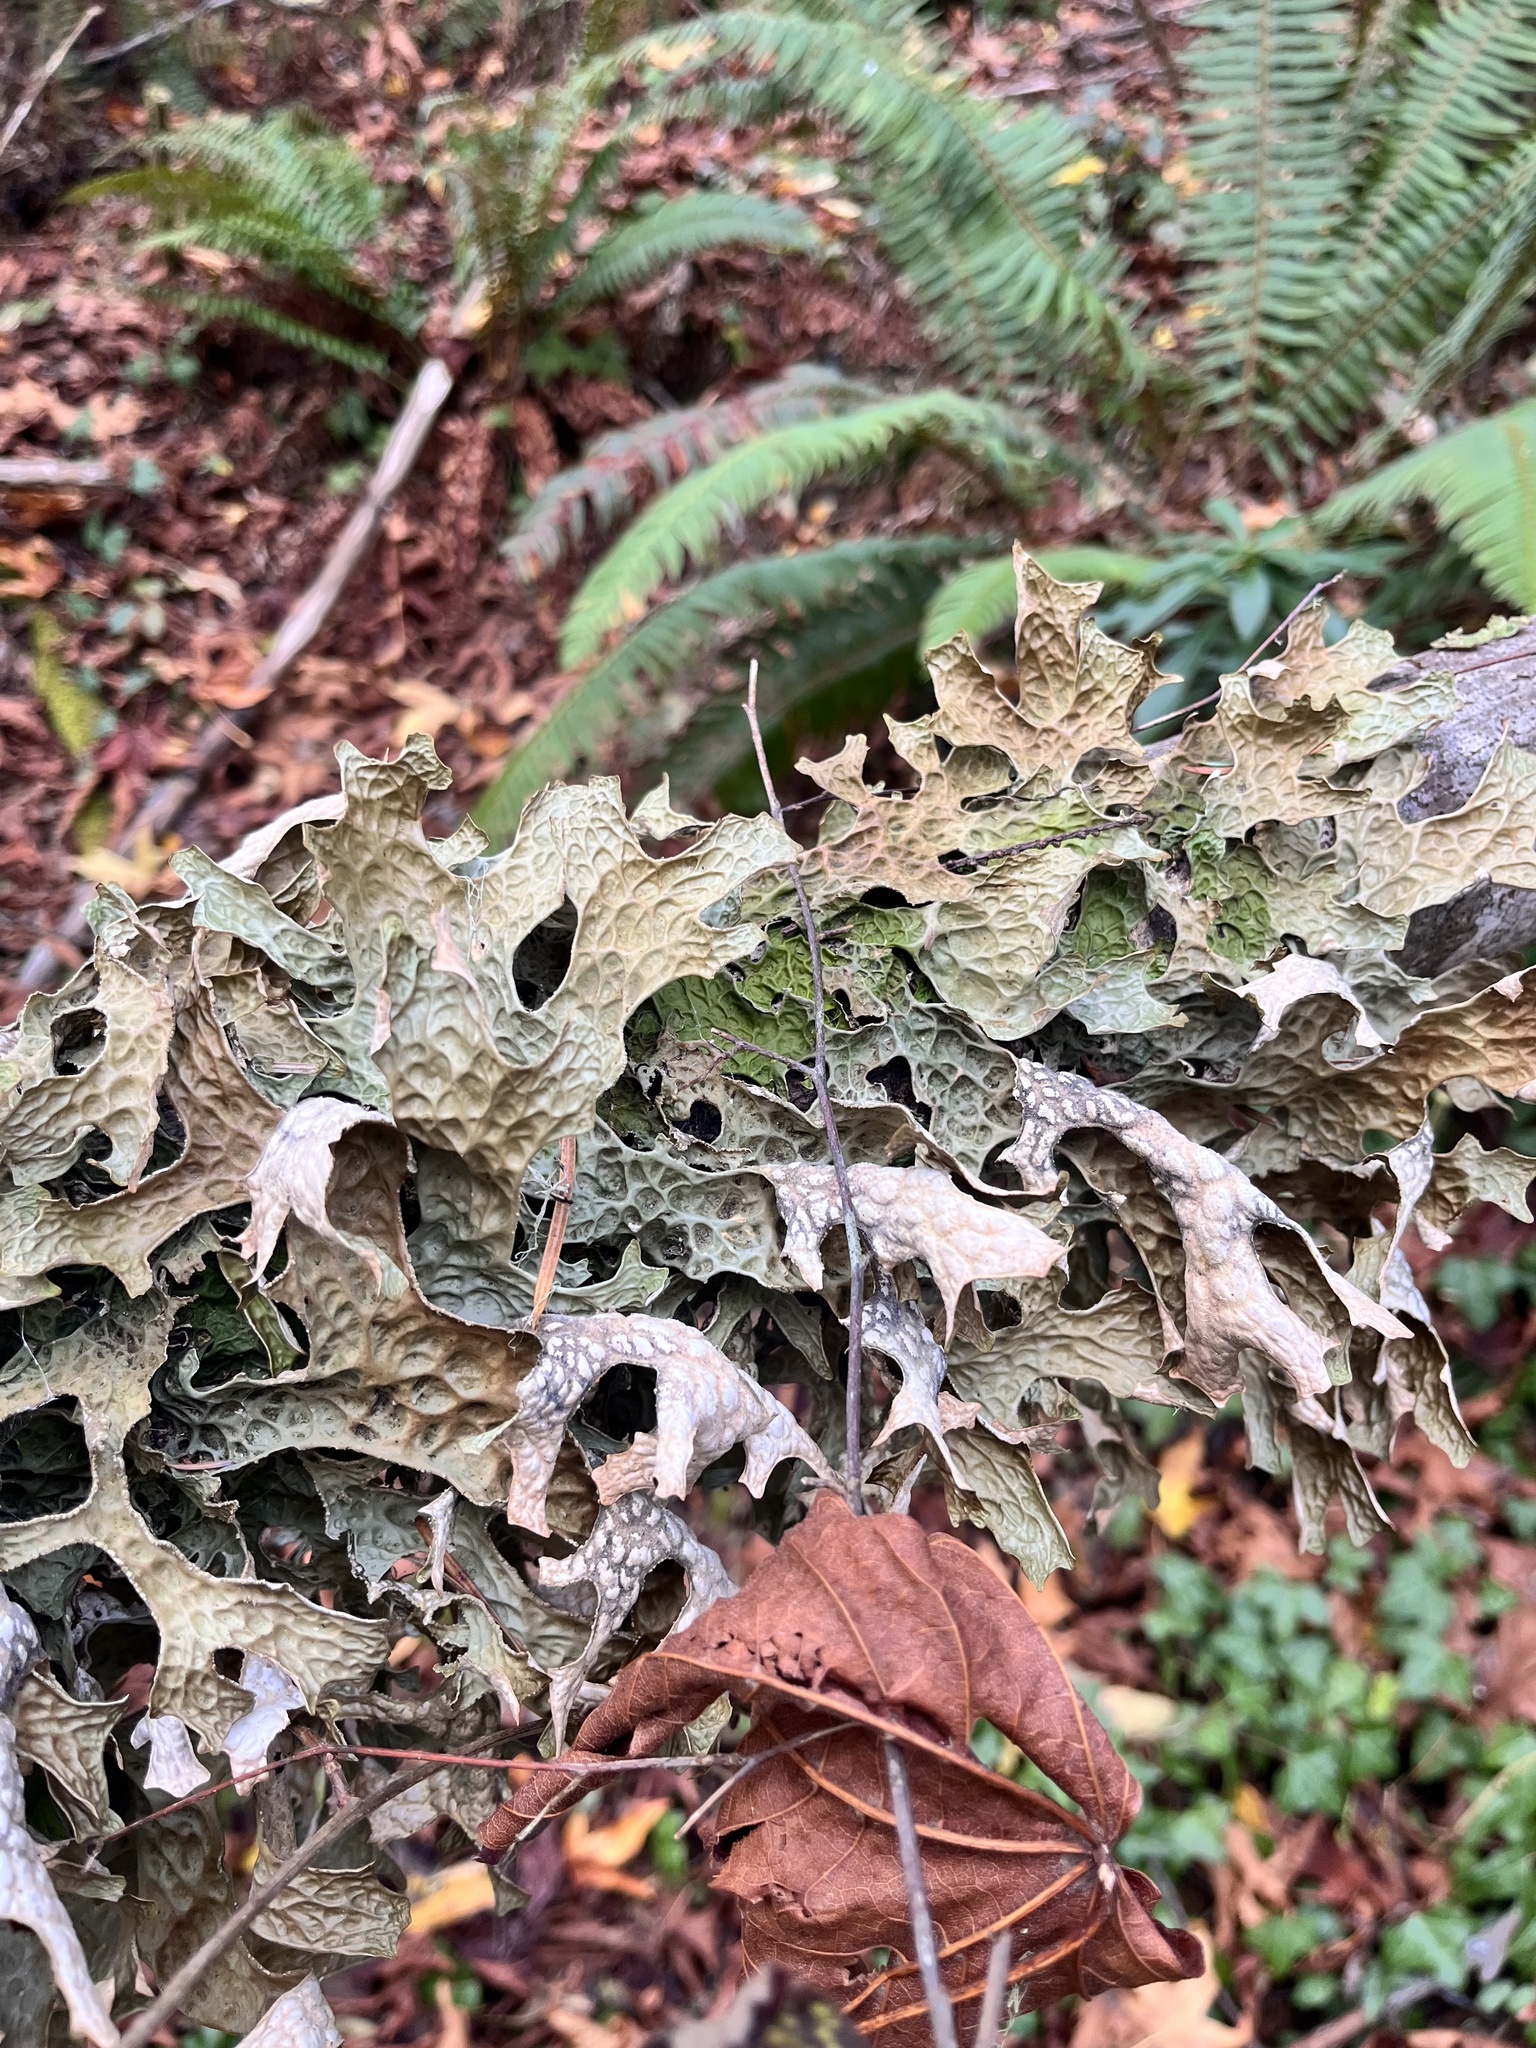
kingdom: Fungi
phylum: Ascomycota
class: Lecanoromycetes
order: Peltigerales
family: Lobariaceae
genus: Lobaria
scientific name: Lobaria pulmonaria
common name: Lungwort
